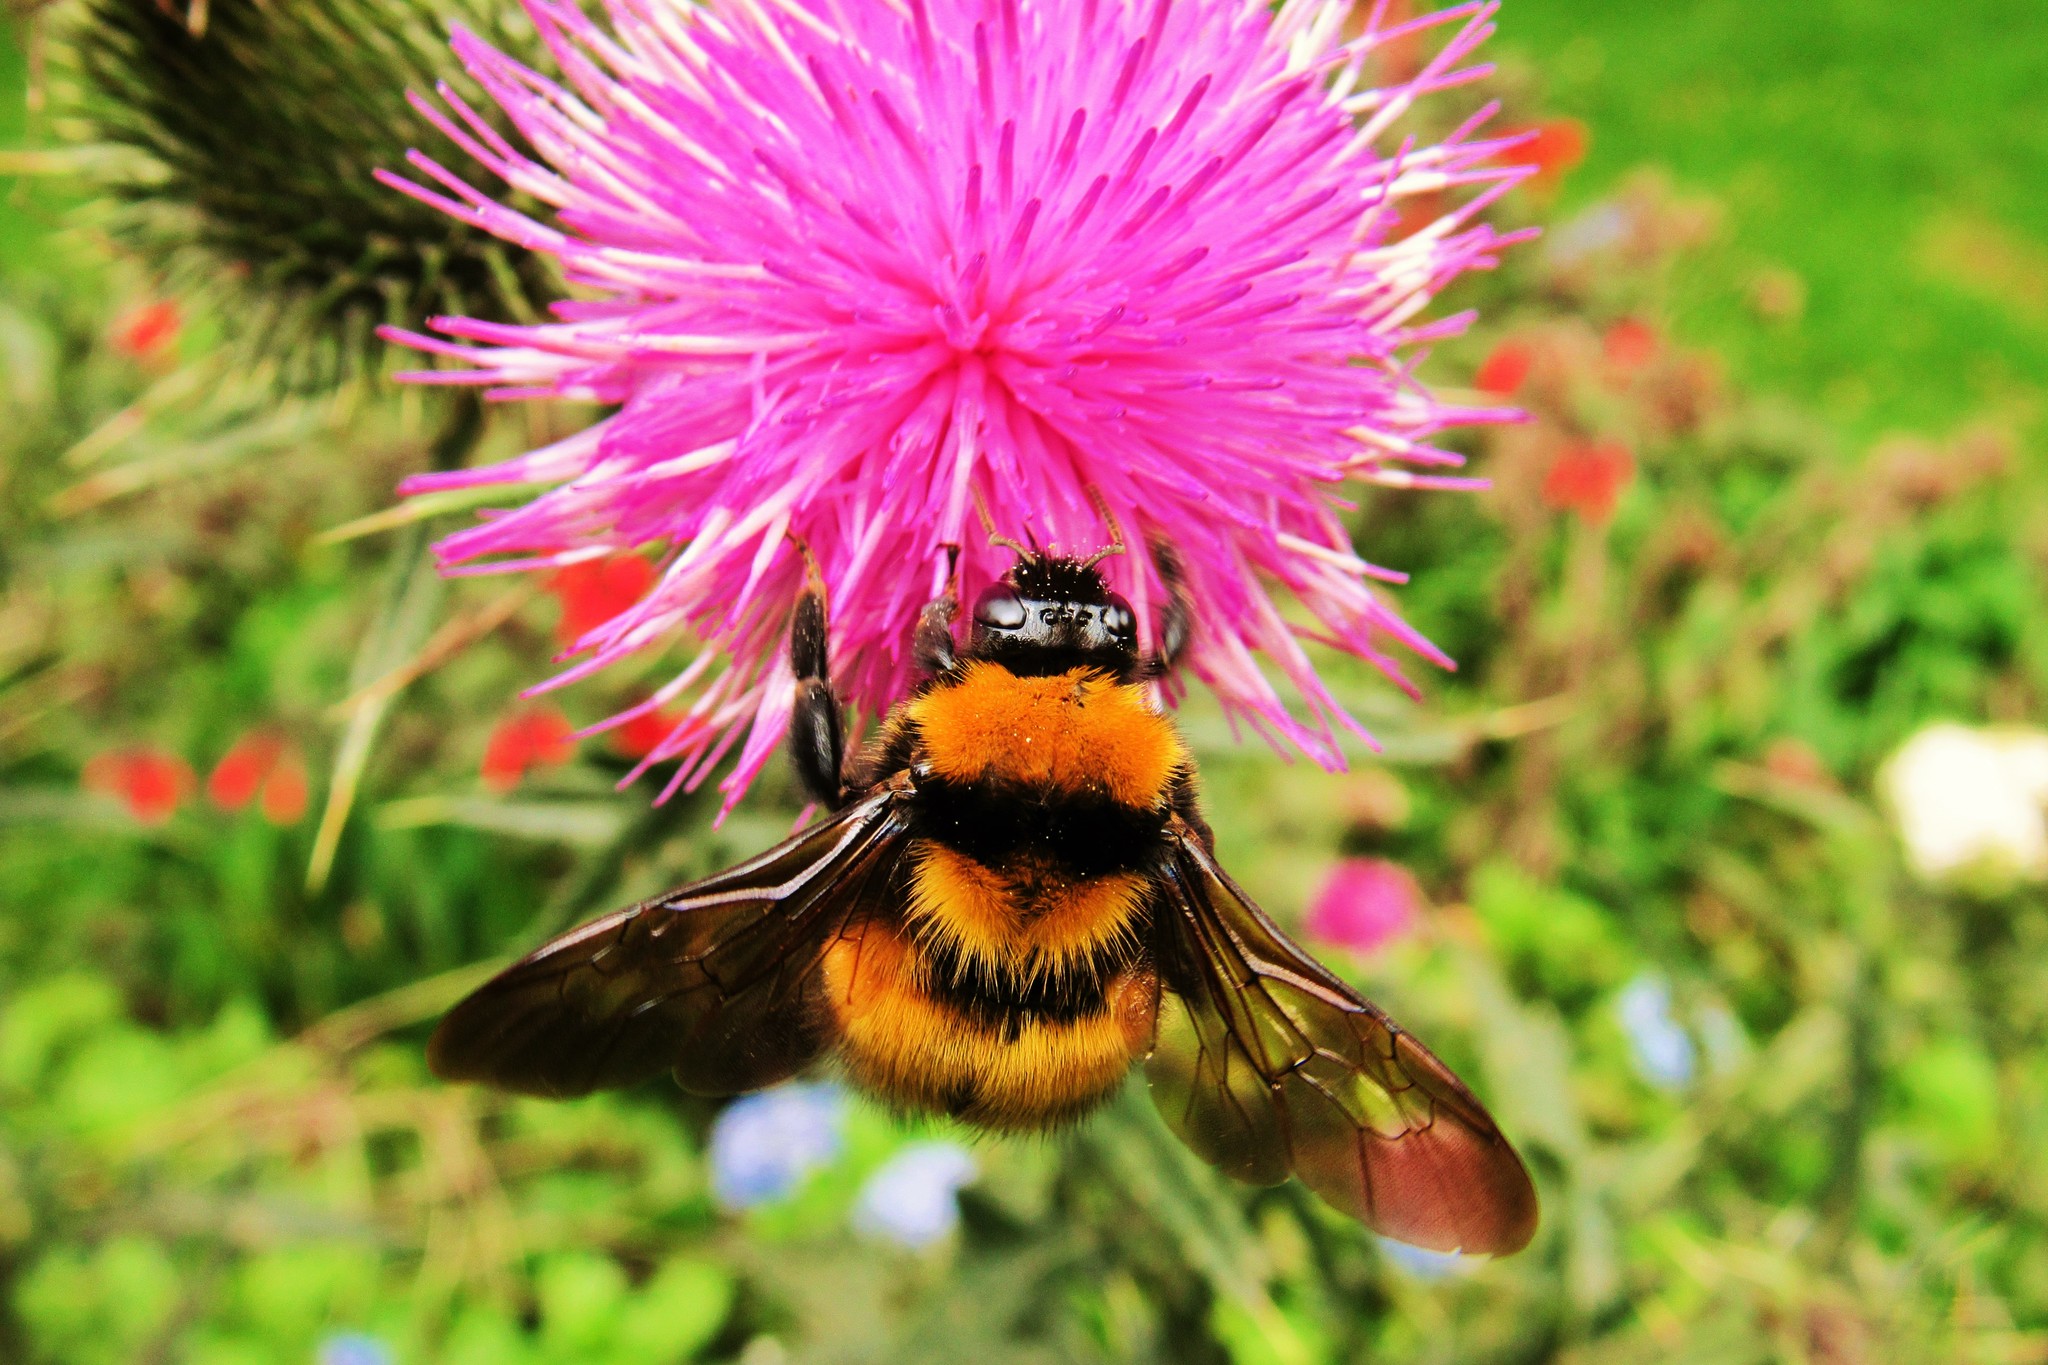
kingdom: Animalia
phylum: Arthropoda
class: Insecta
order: Hymenoptera
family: Apidae
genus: Bombus
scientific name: Bombus hortulanus
